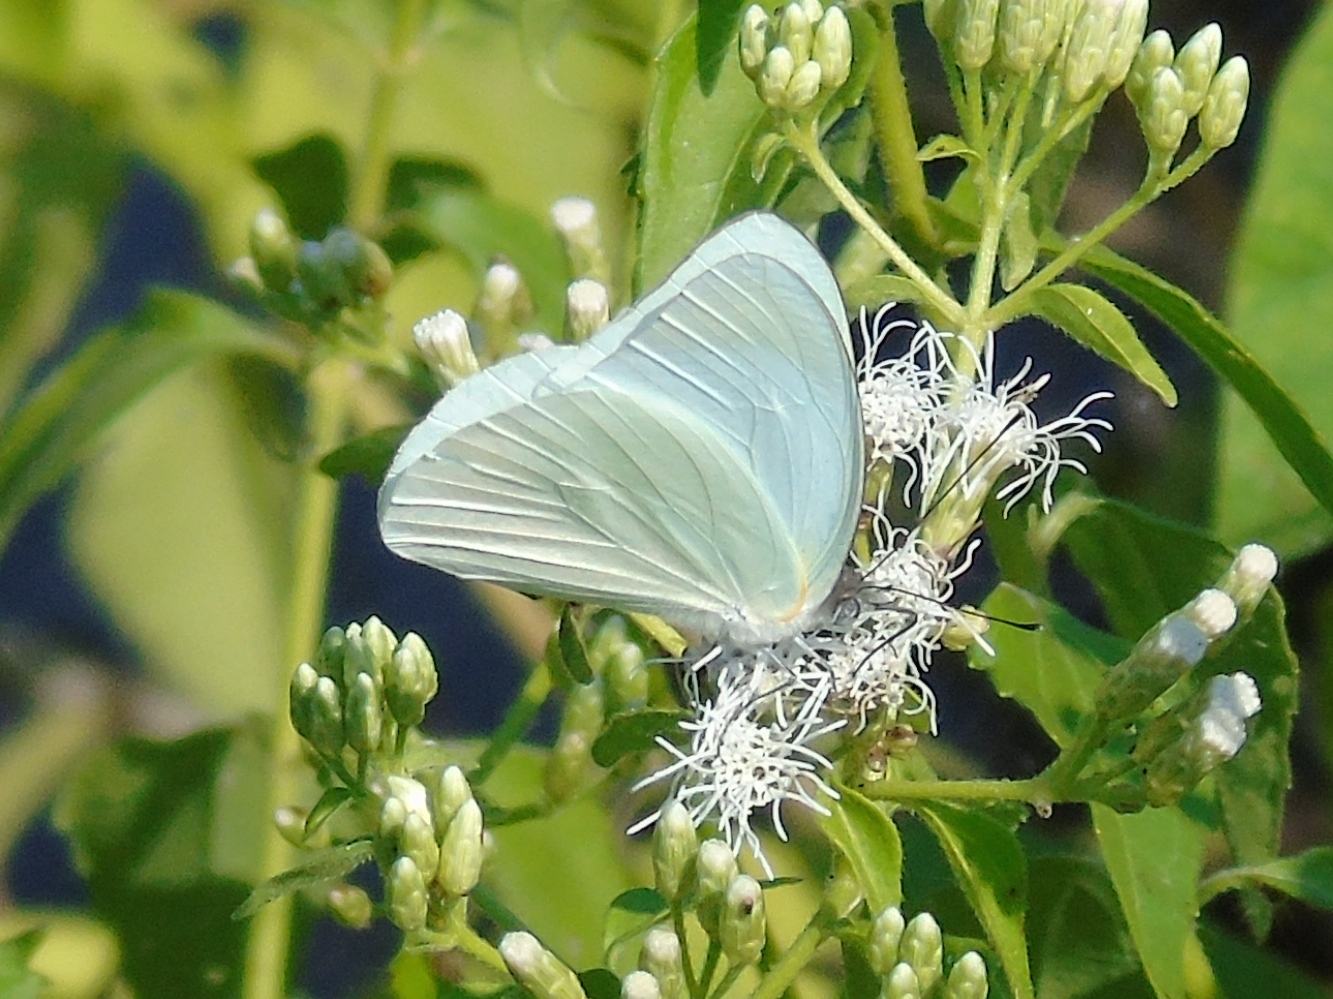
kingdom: Animalia
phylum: Arthropoda
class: Insecta
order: Lepidoptera
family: Pieridae
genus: Glutophrissa
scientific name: Glutophrissa drusilla
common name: Florida white
